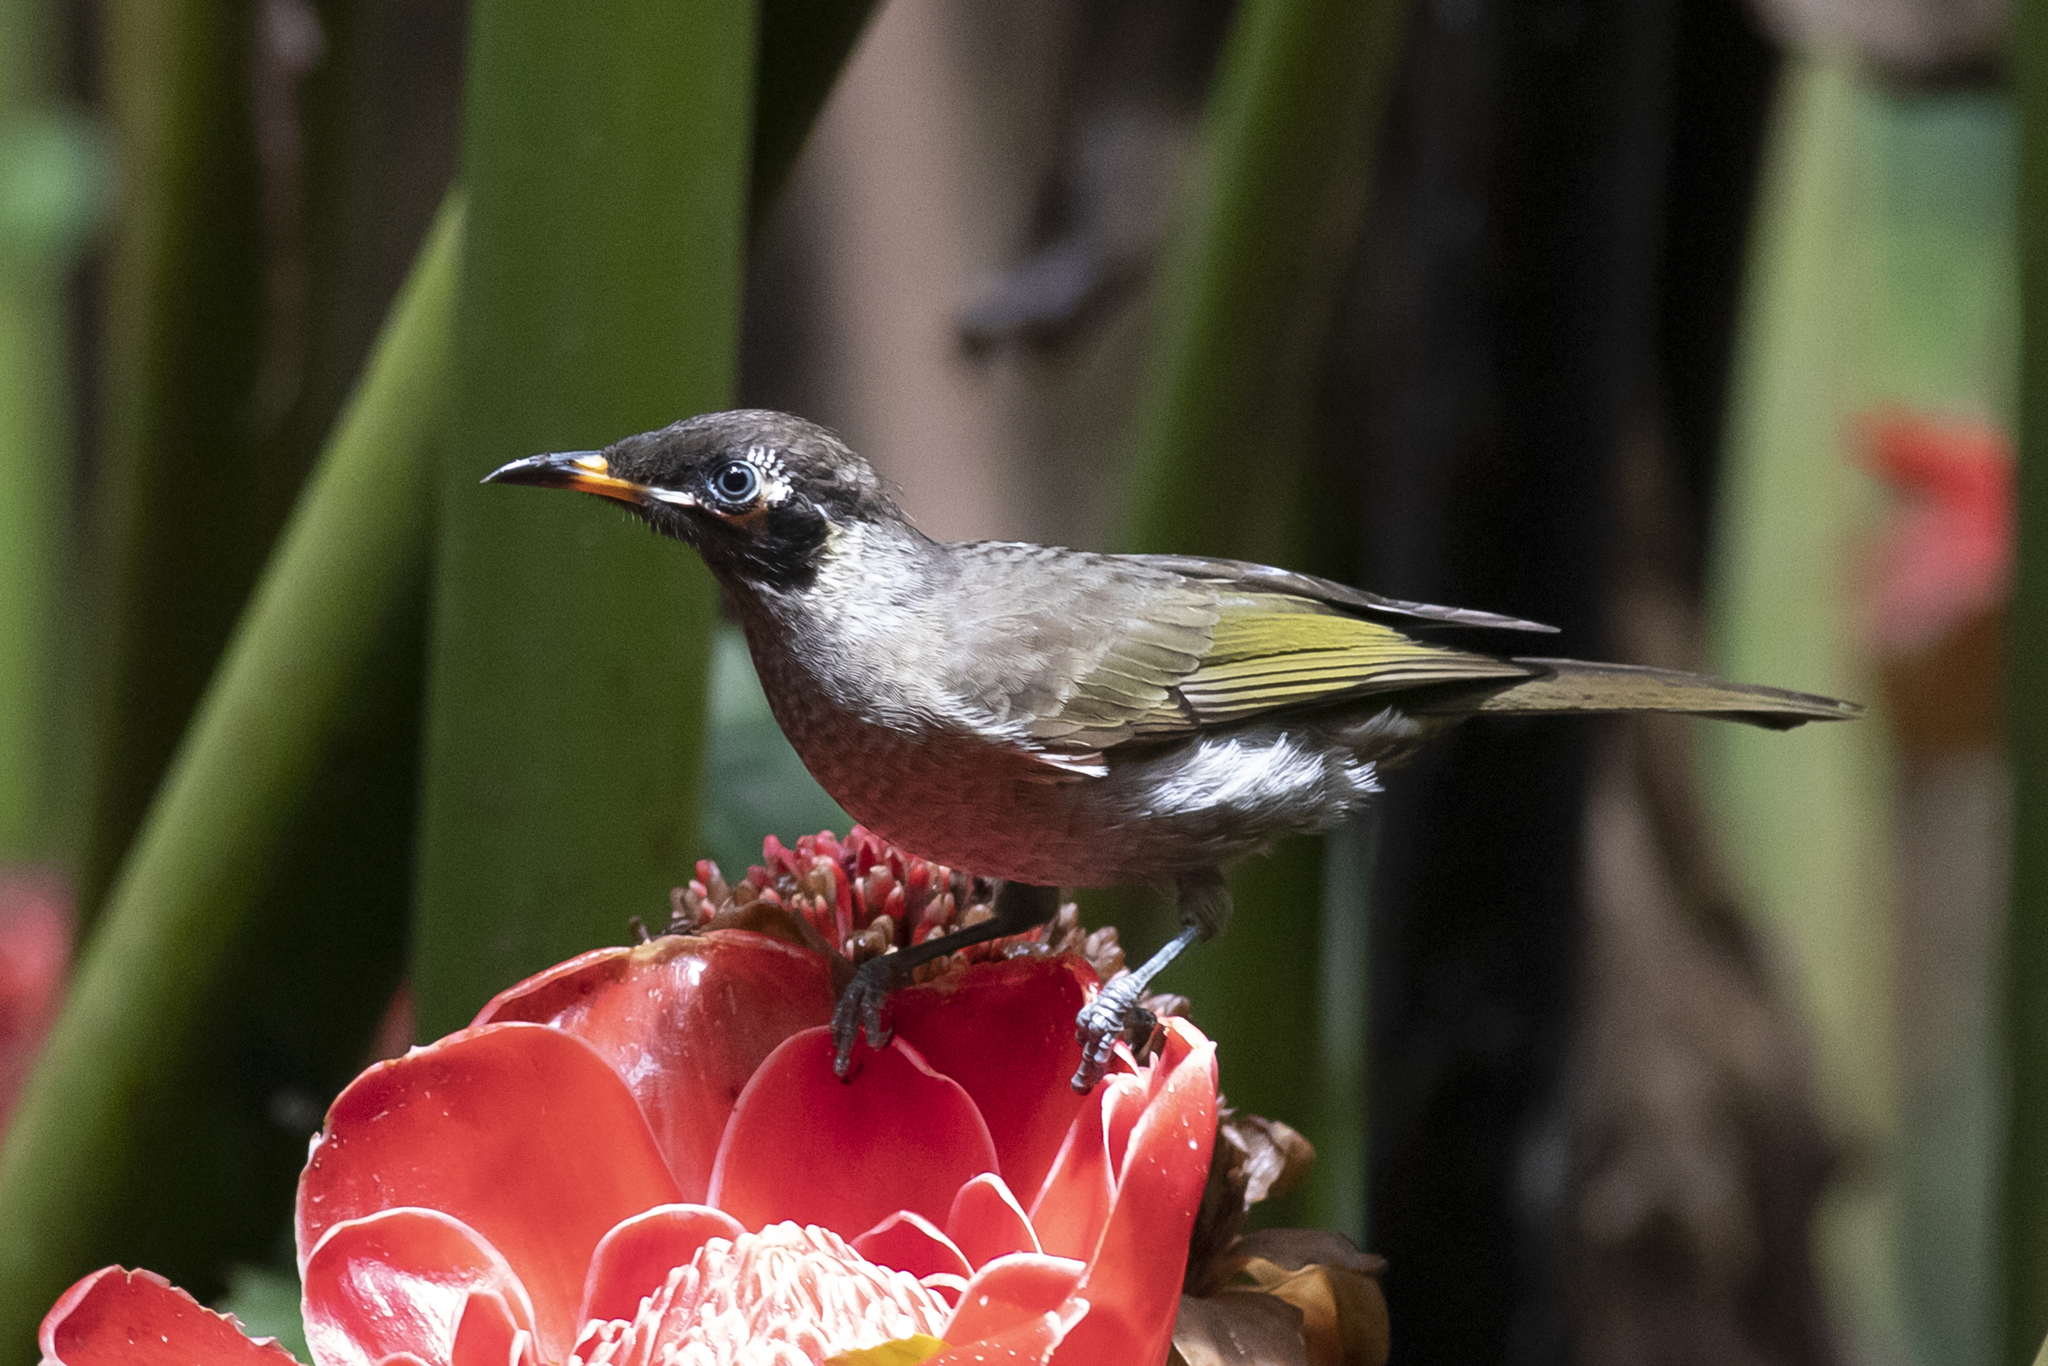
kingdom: Animalia
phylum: Chordata
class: Aves
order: Passeriformes
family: Meliphagidae
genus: Bolemoreus
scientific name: Bolemoreus frenatus
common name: Bridled honeyeater
